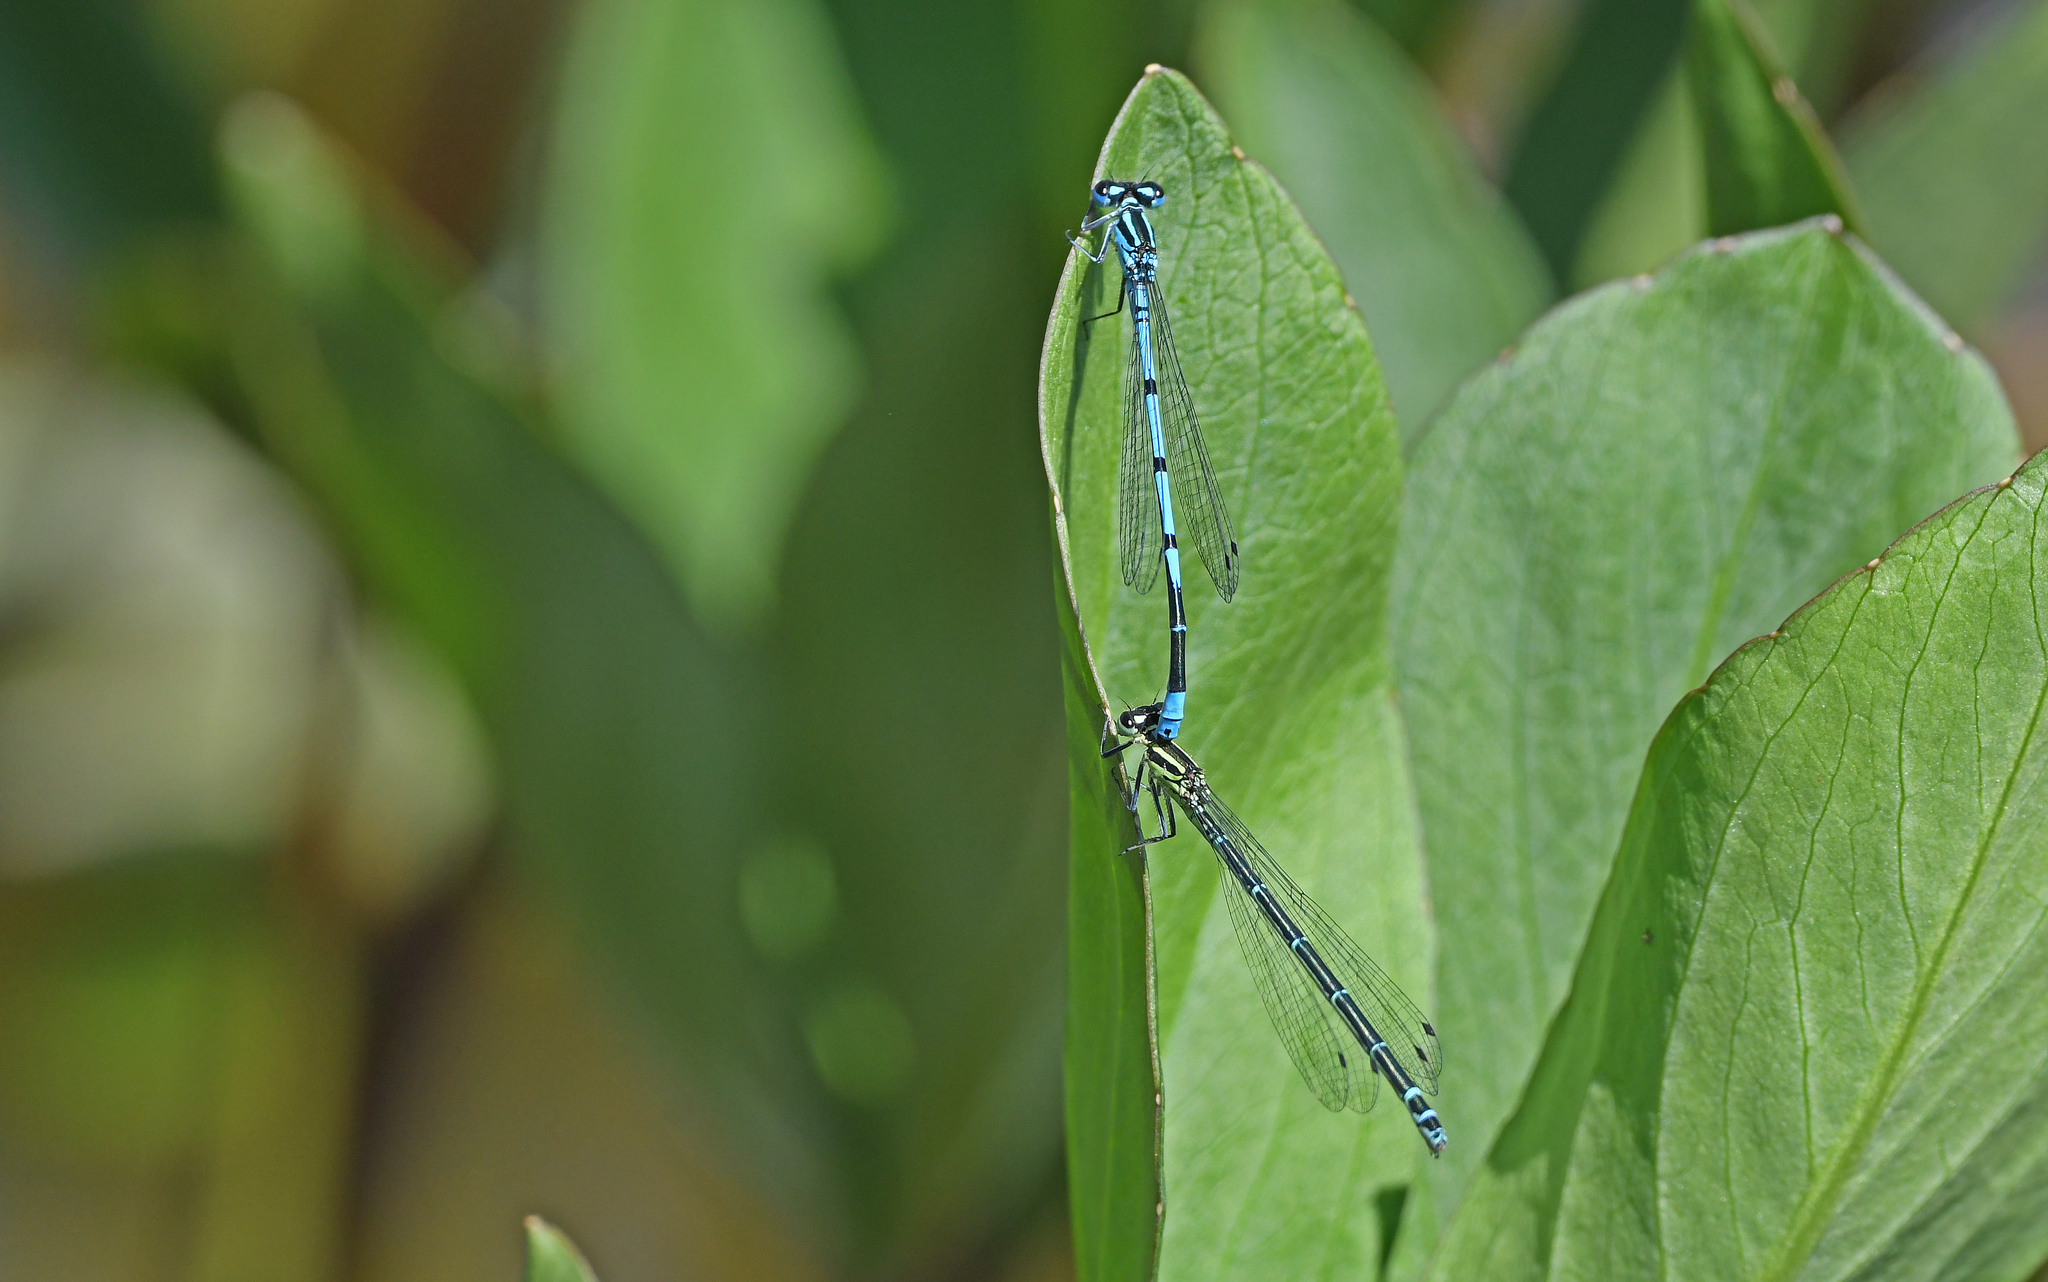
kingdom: Animalia
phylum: Arthropoda
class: Insecta
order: Odonata
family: Coenagrionidae
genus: Coenagrion
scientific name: Coenagrion puella
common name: Azure damselfly
